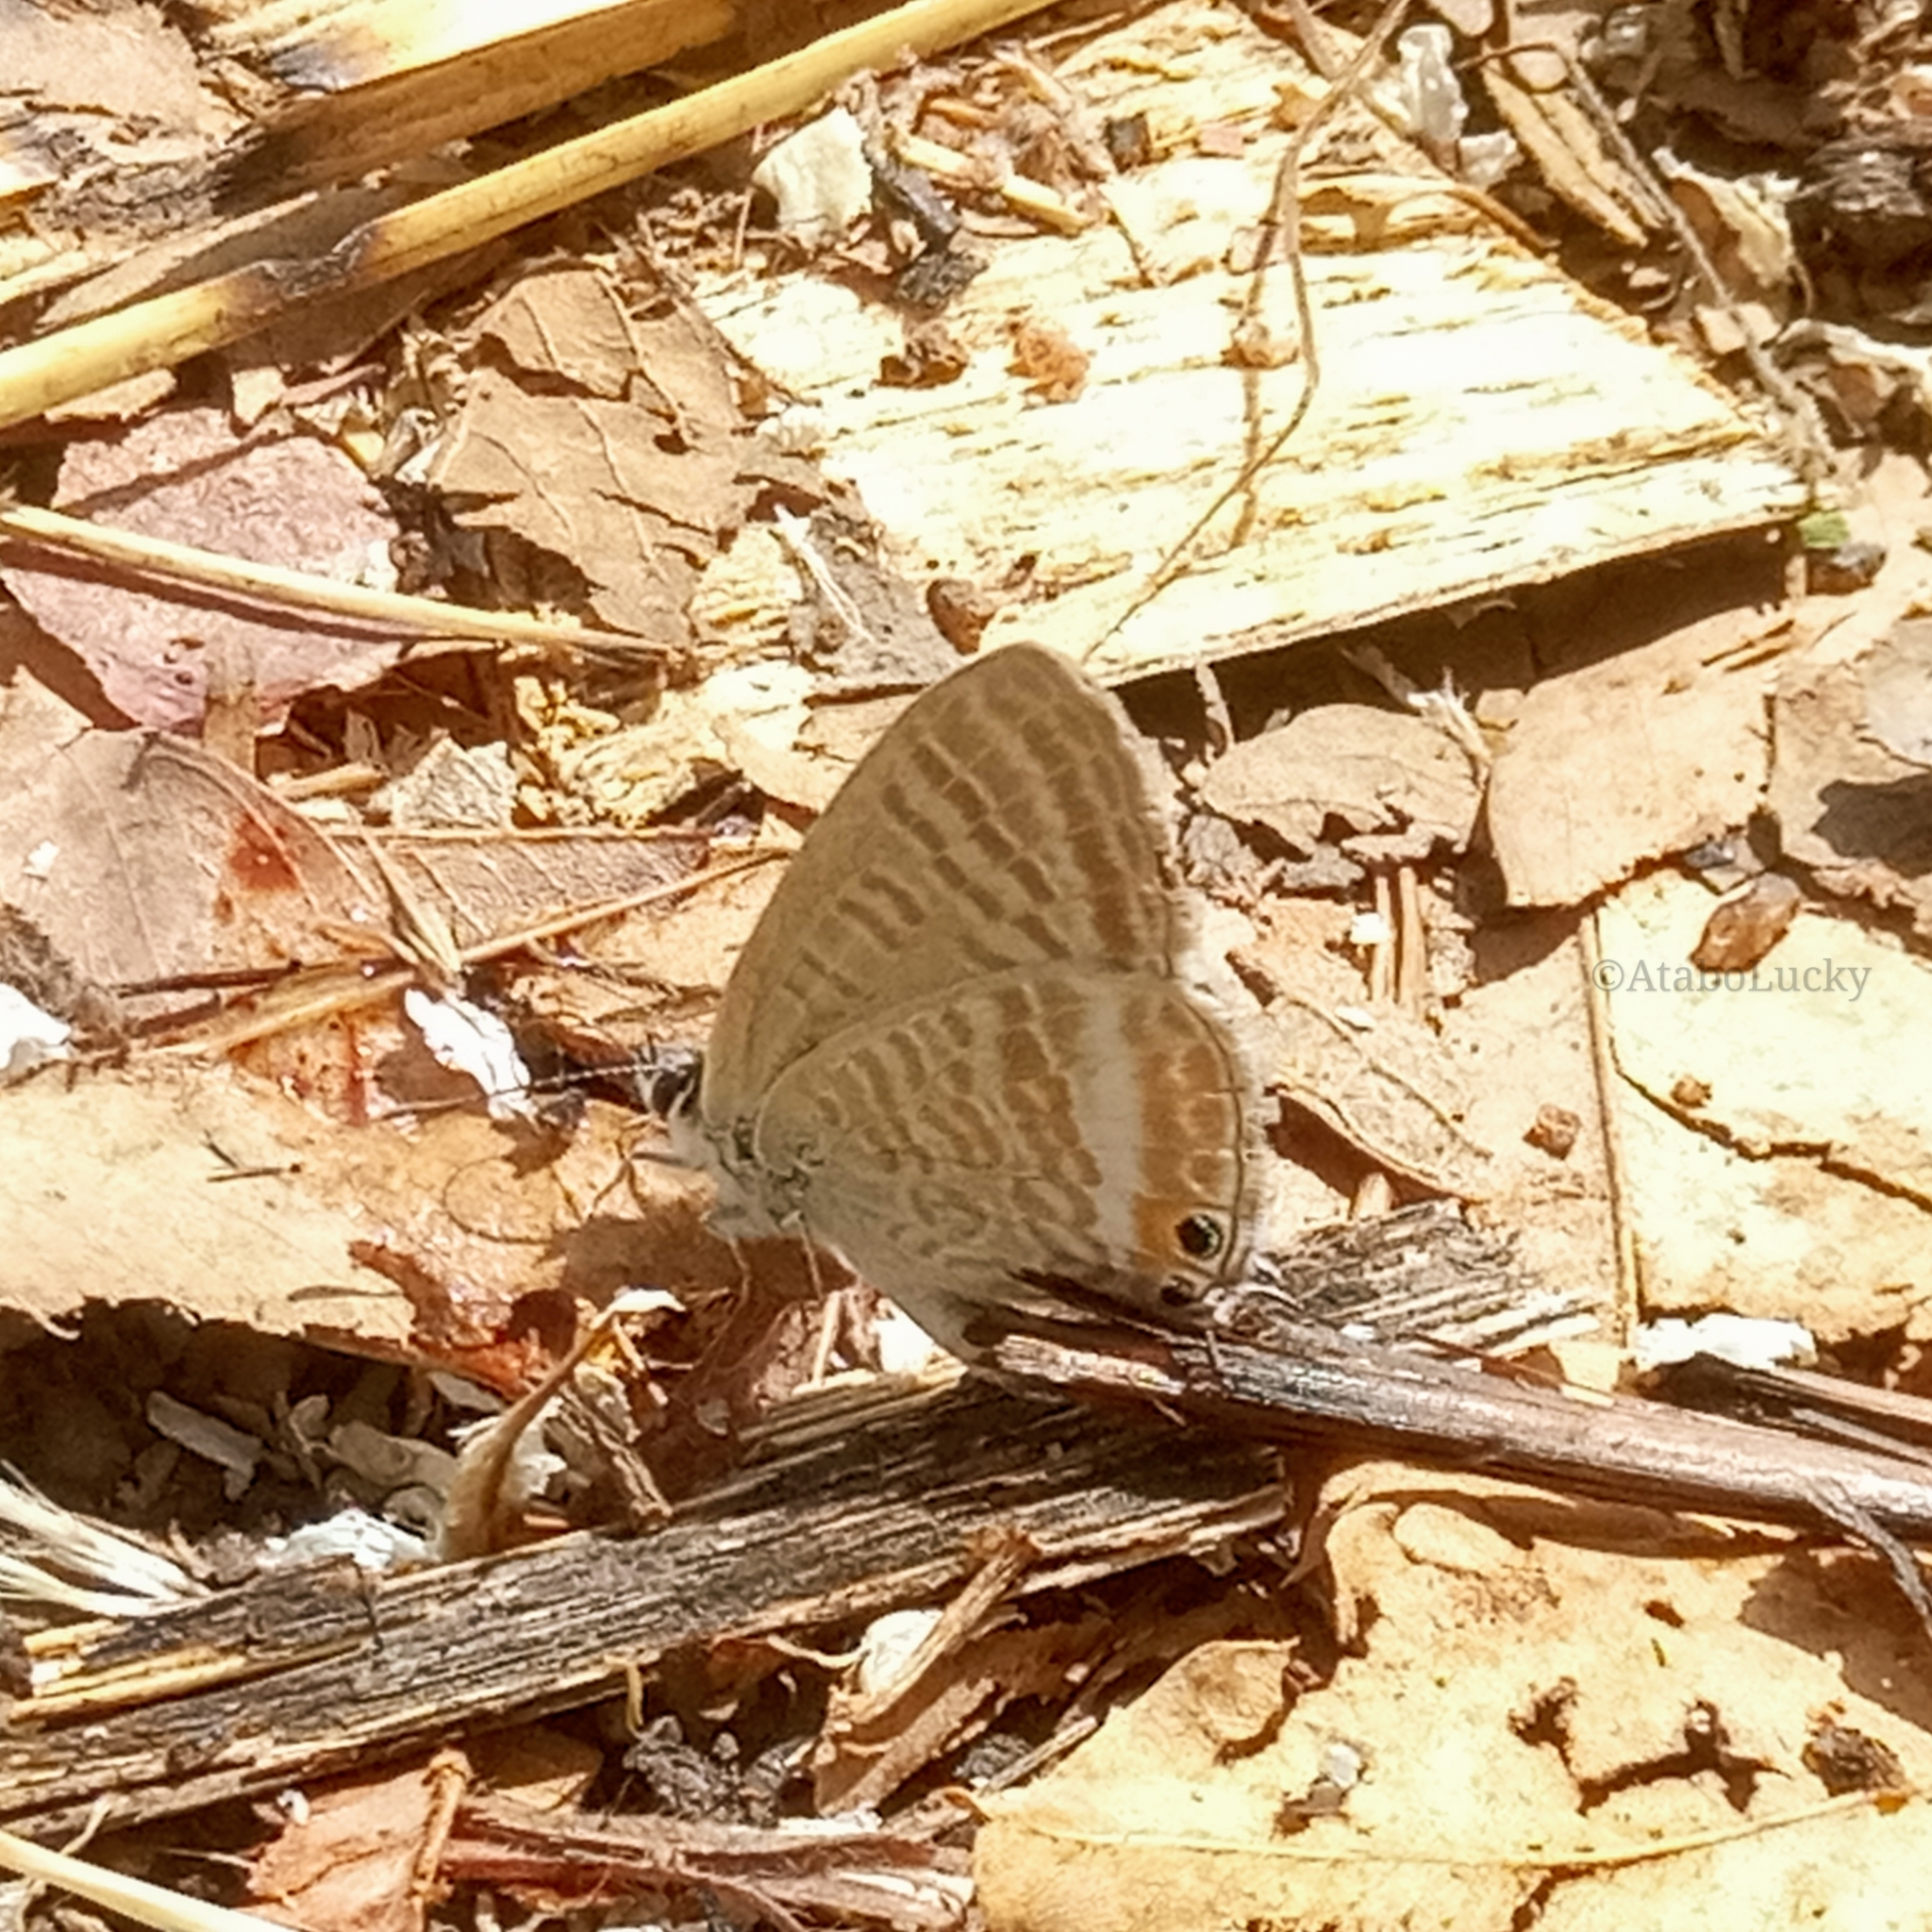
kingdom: Animalia
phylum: Arthropoda
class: Insecta
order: Lepidoptera
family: Lycaenidae
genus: Lampides
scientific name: Lampides boeticus
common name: Long-tailed blue
